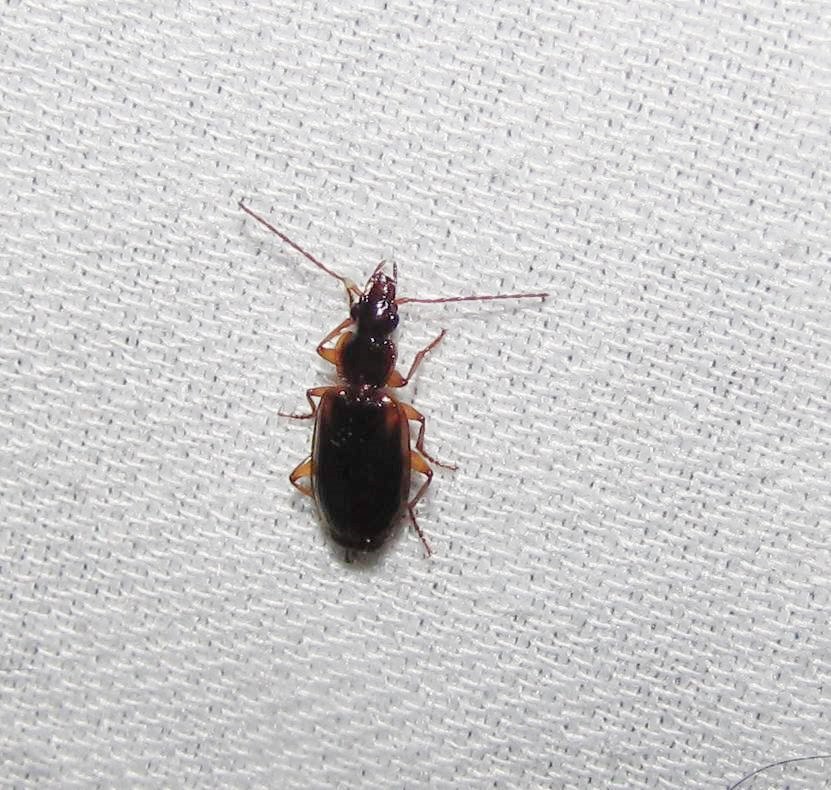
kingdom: Animalia
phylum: Arthropoda
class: Insecta
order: Coleoptera
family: Carabidae
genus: Pinacodera
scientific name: Pinacodera limbata
